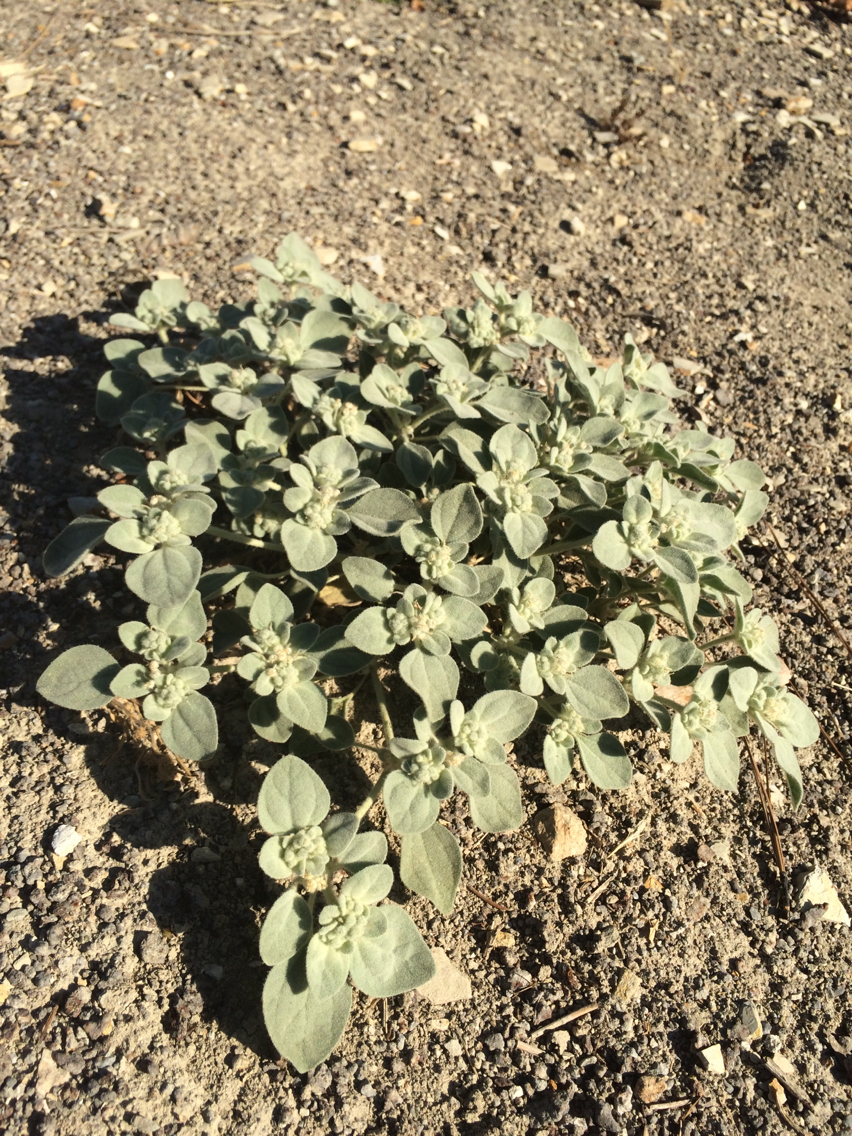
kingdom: Plantae
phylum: Tracheophyta
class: Magnoliopsida
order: Malpighiales
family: Euphorbiaceae
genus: Croton
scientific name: Croton setiger
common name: Dove weed
